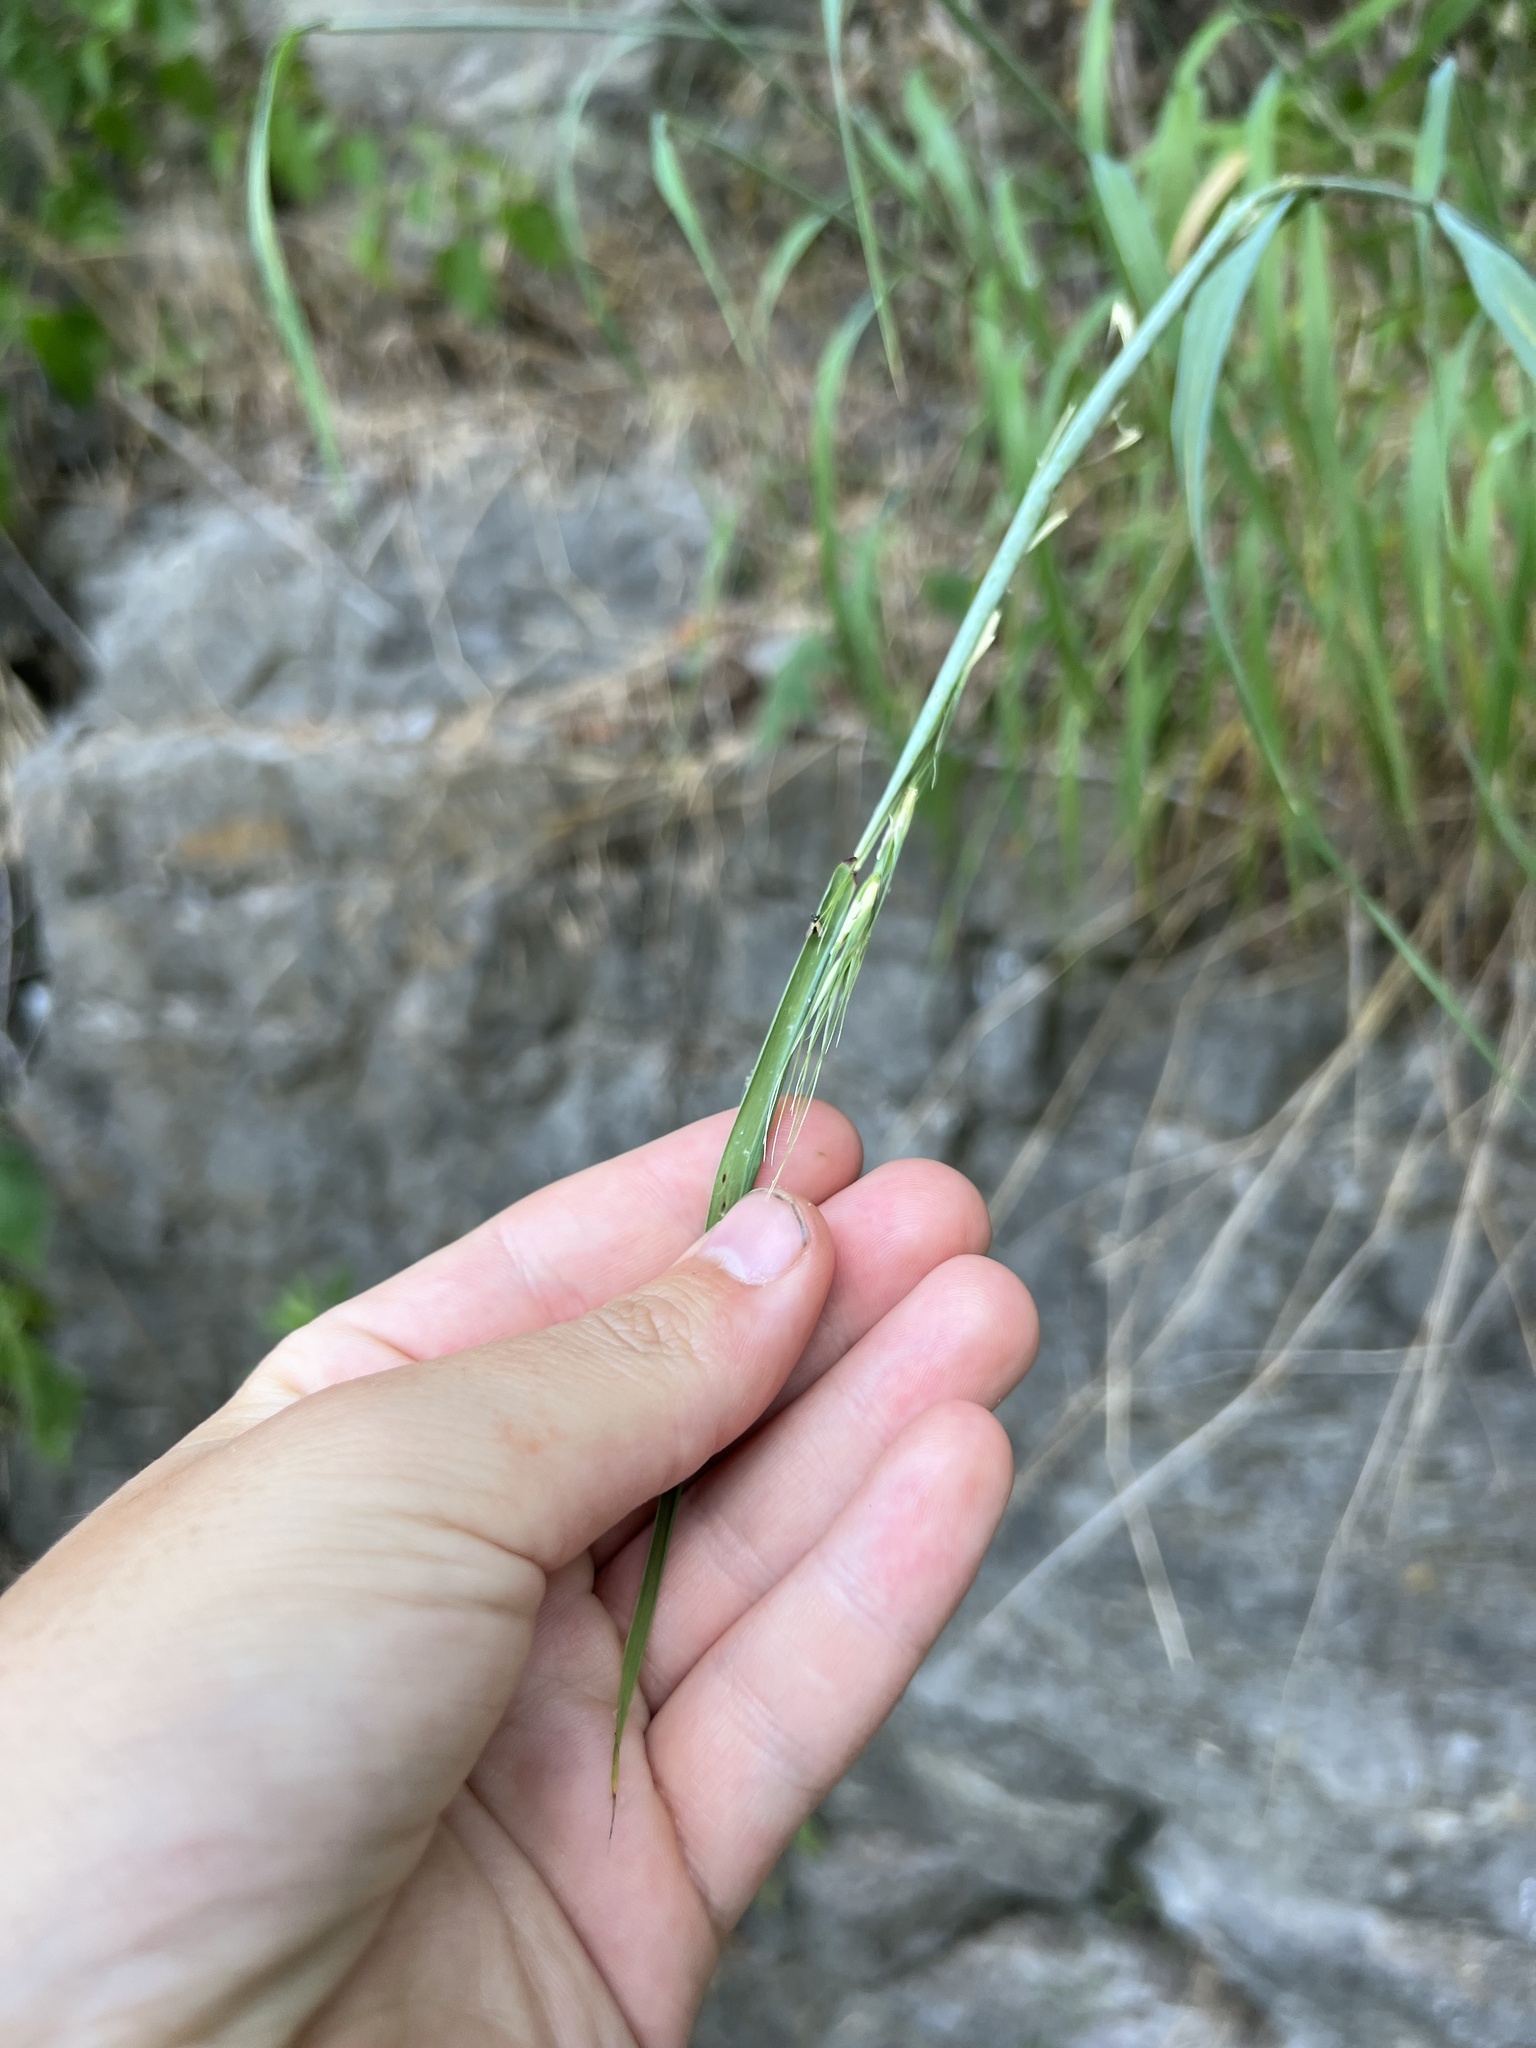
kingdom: Plantae
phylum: Tracheophyta
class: Liliopsida
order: Poales
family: Poaceae
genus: Elymus
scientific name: Elymus svensonii
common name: Svenson's wild rye
